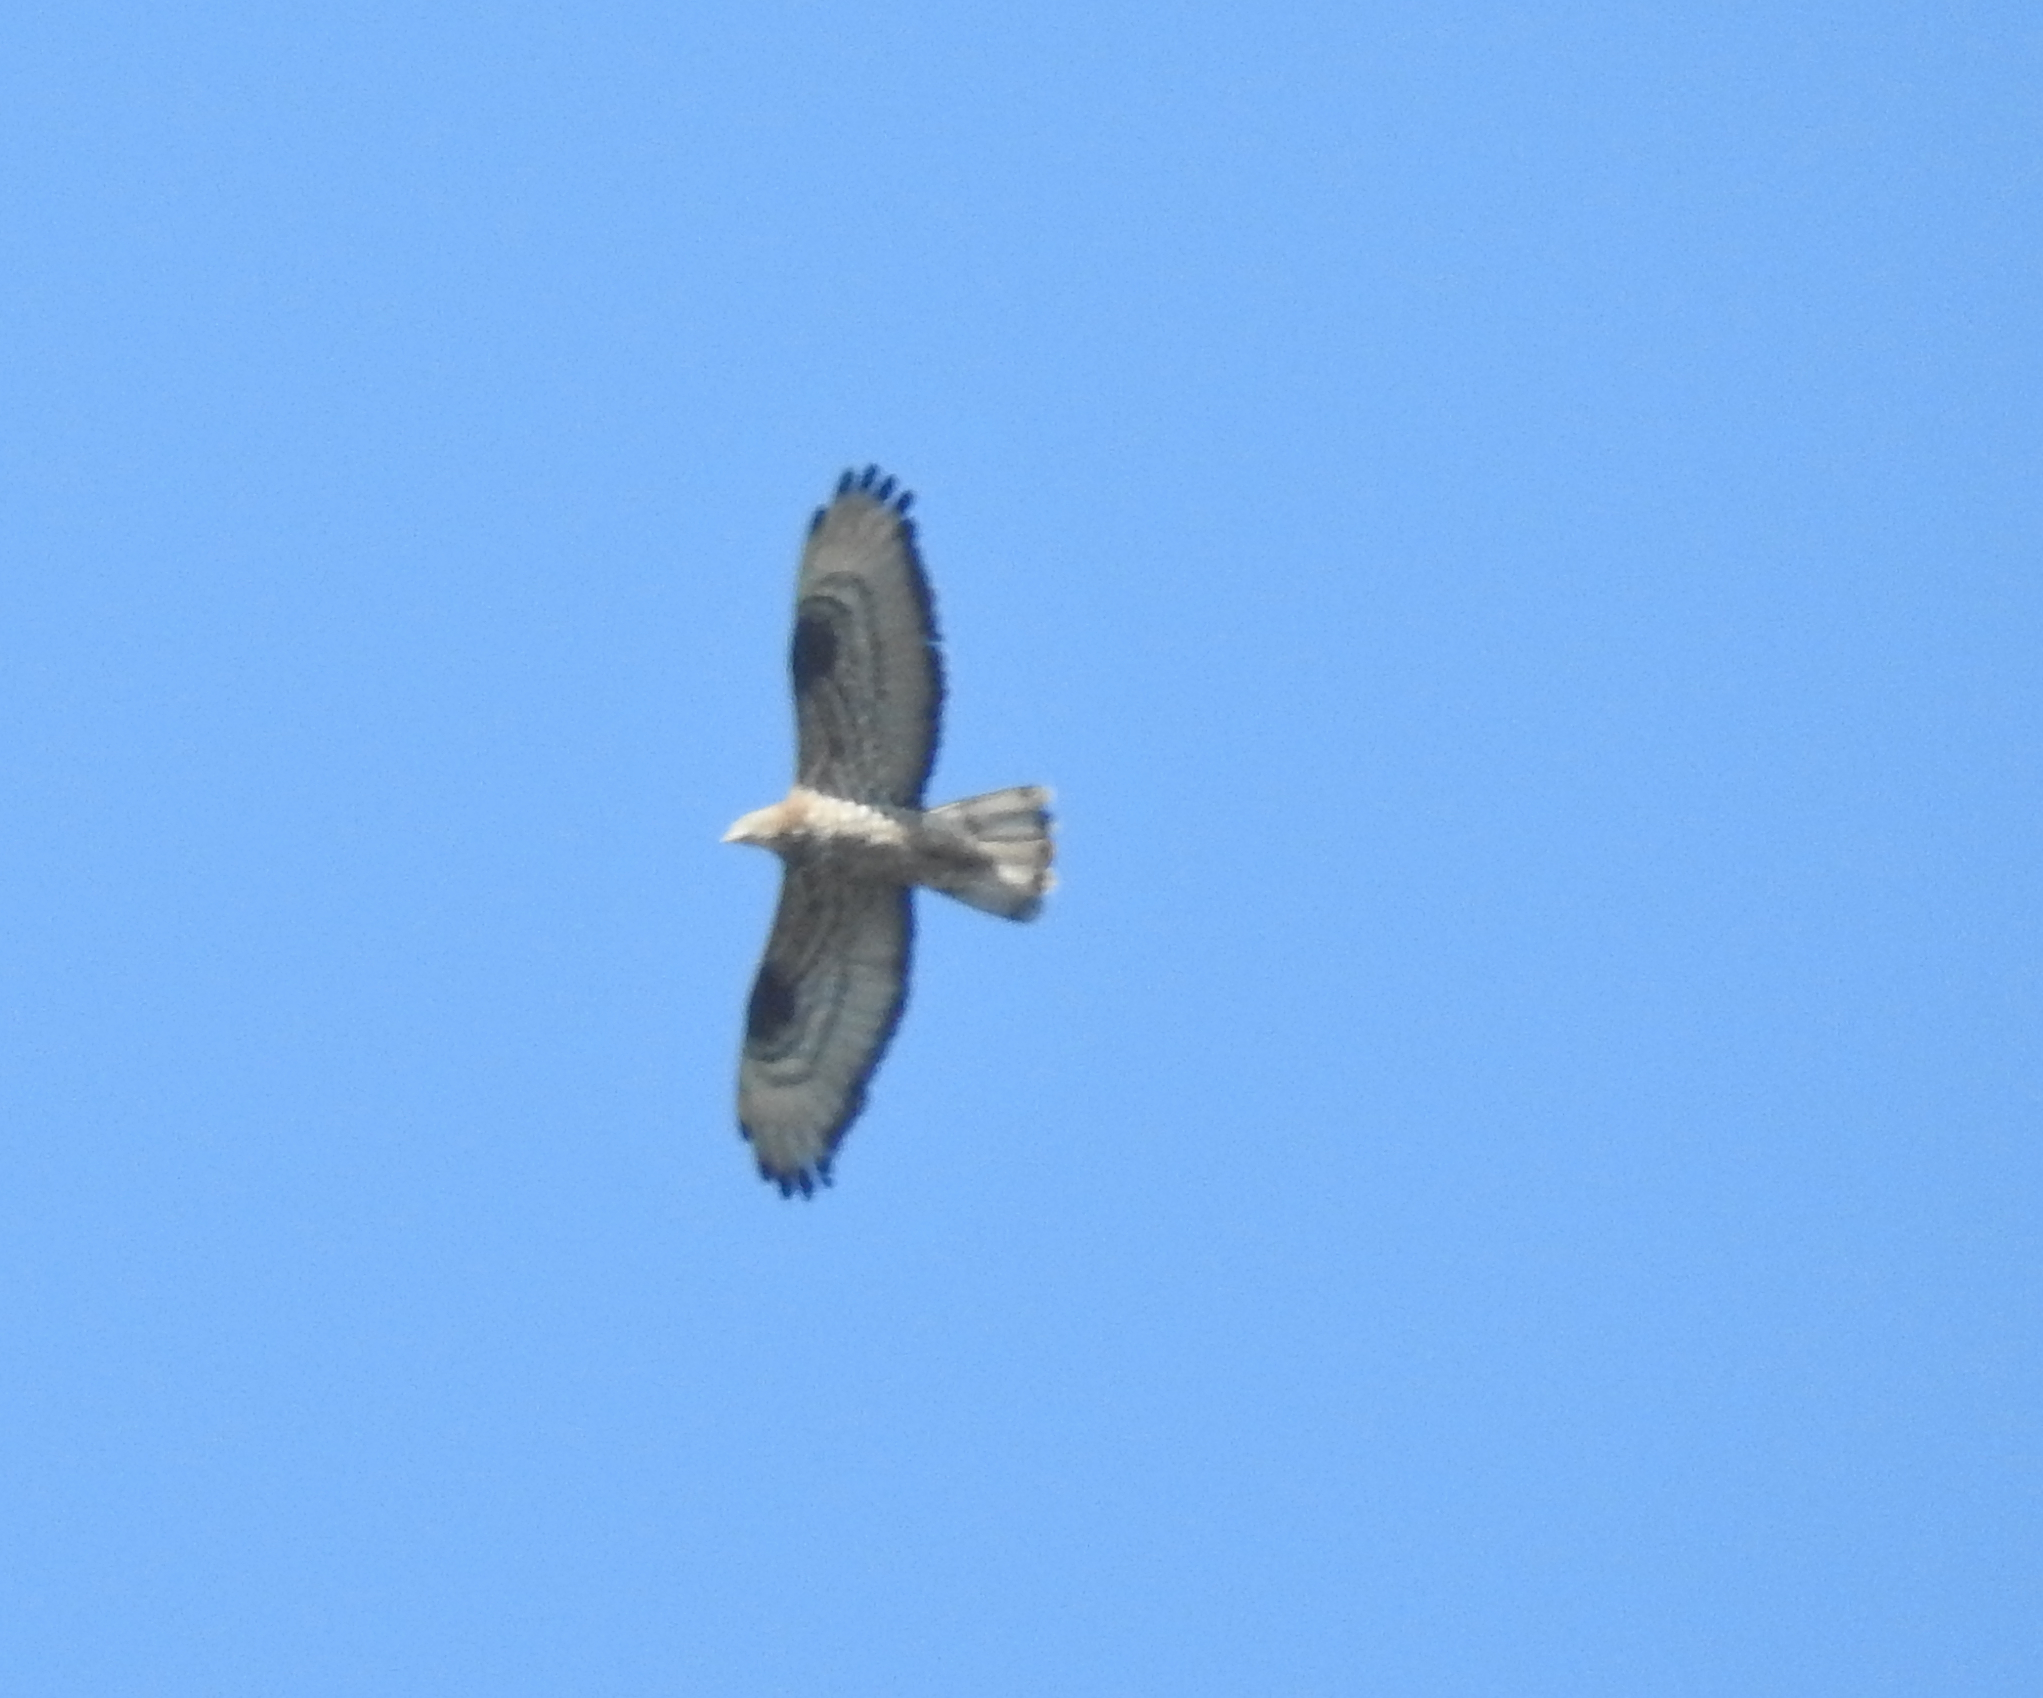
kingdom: Animalia
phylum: Chordata
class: Aves
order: Accipitriformes
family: Accipitridae
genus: Pernis
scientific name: Pernis apivorus
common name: European honey buzzard
